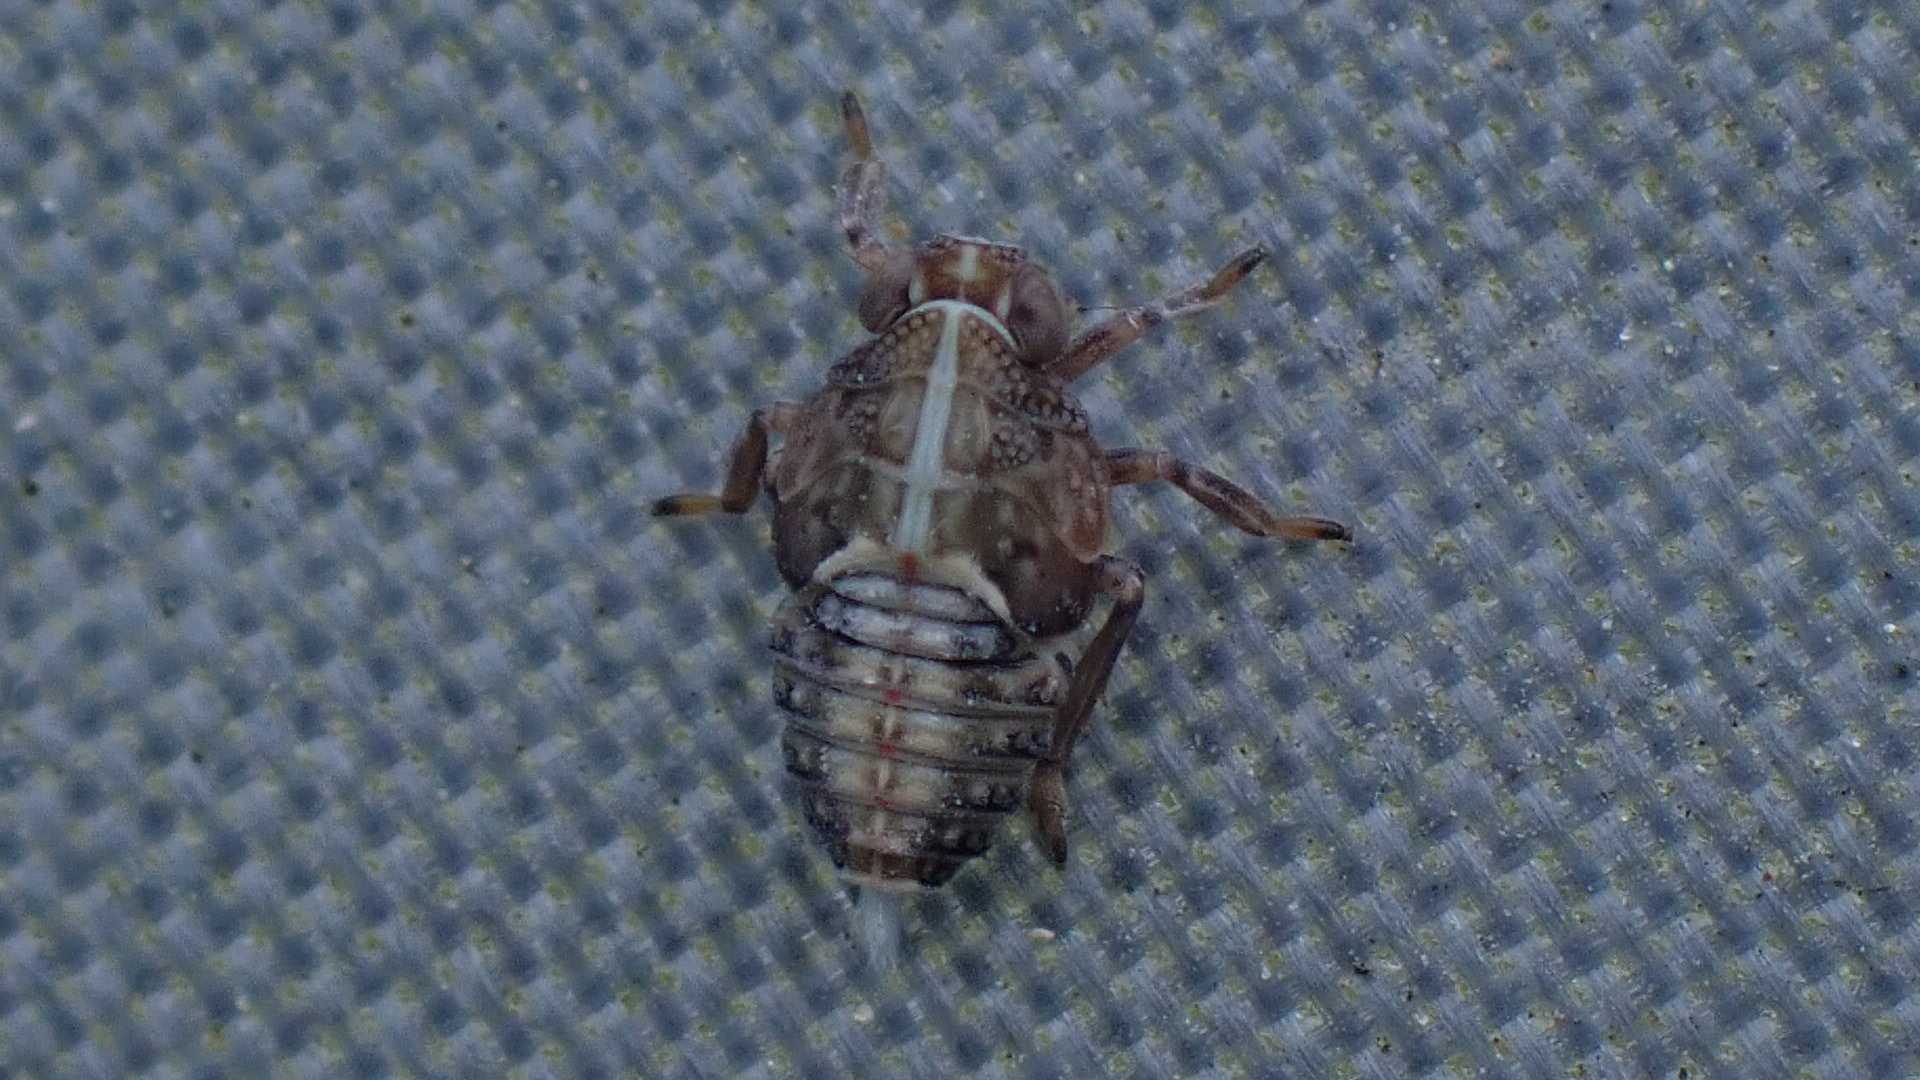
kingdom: Animalia
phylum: Arthropoda
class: Insecta
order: Hemiptera
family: Issidae
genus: Issus
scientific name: Issus coleoptratus
